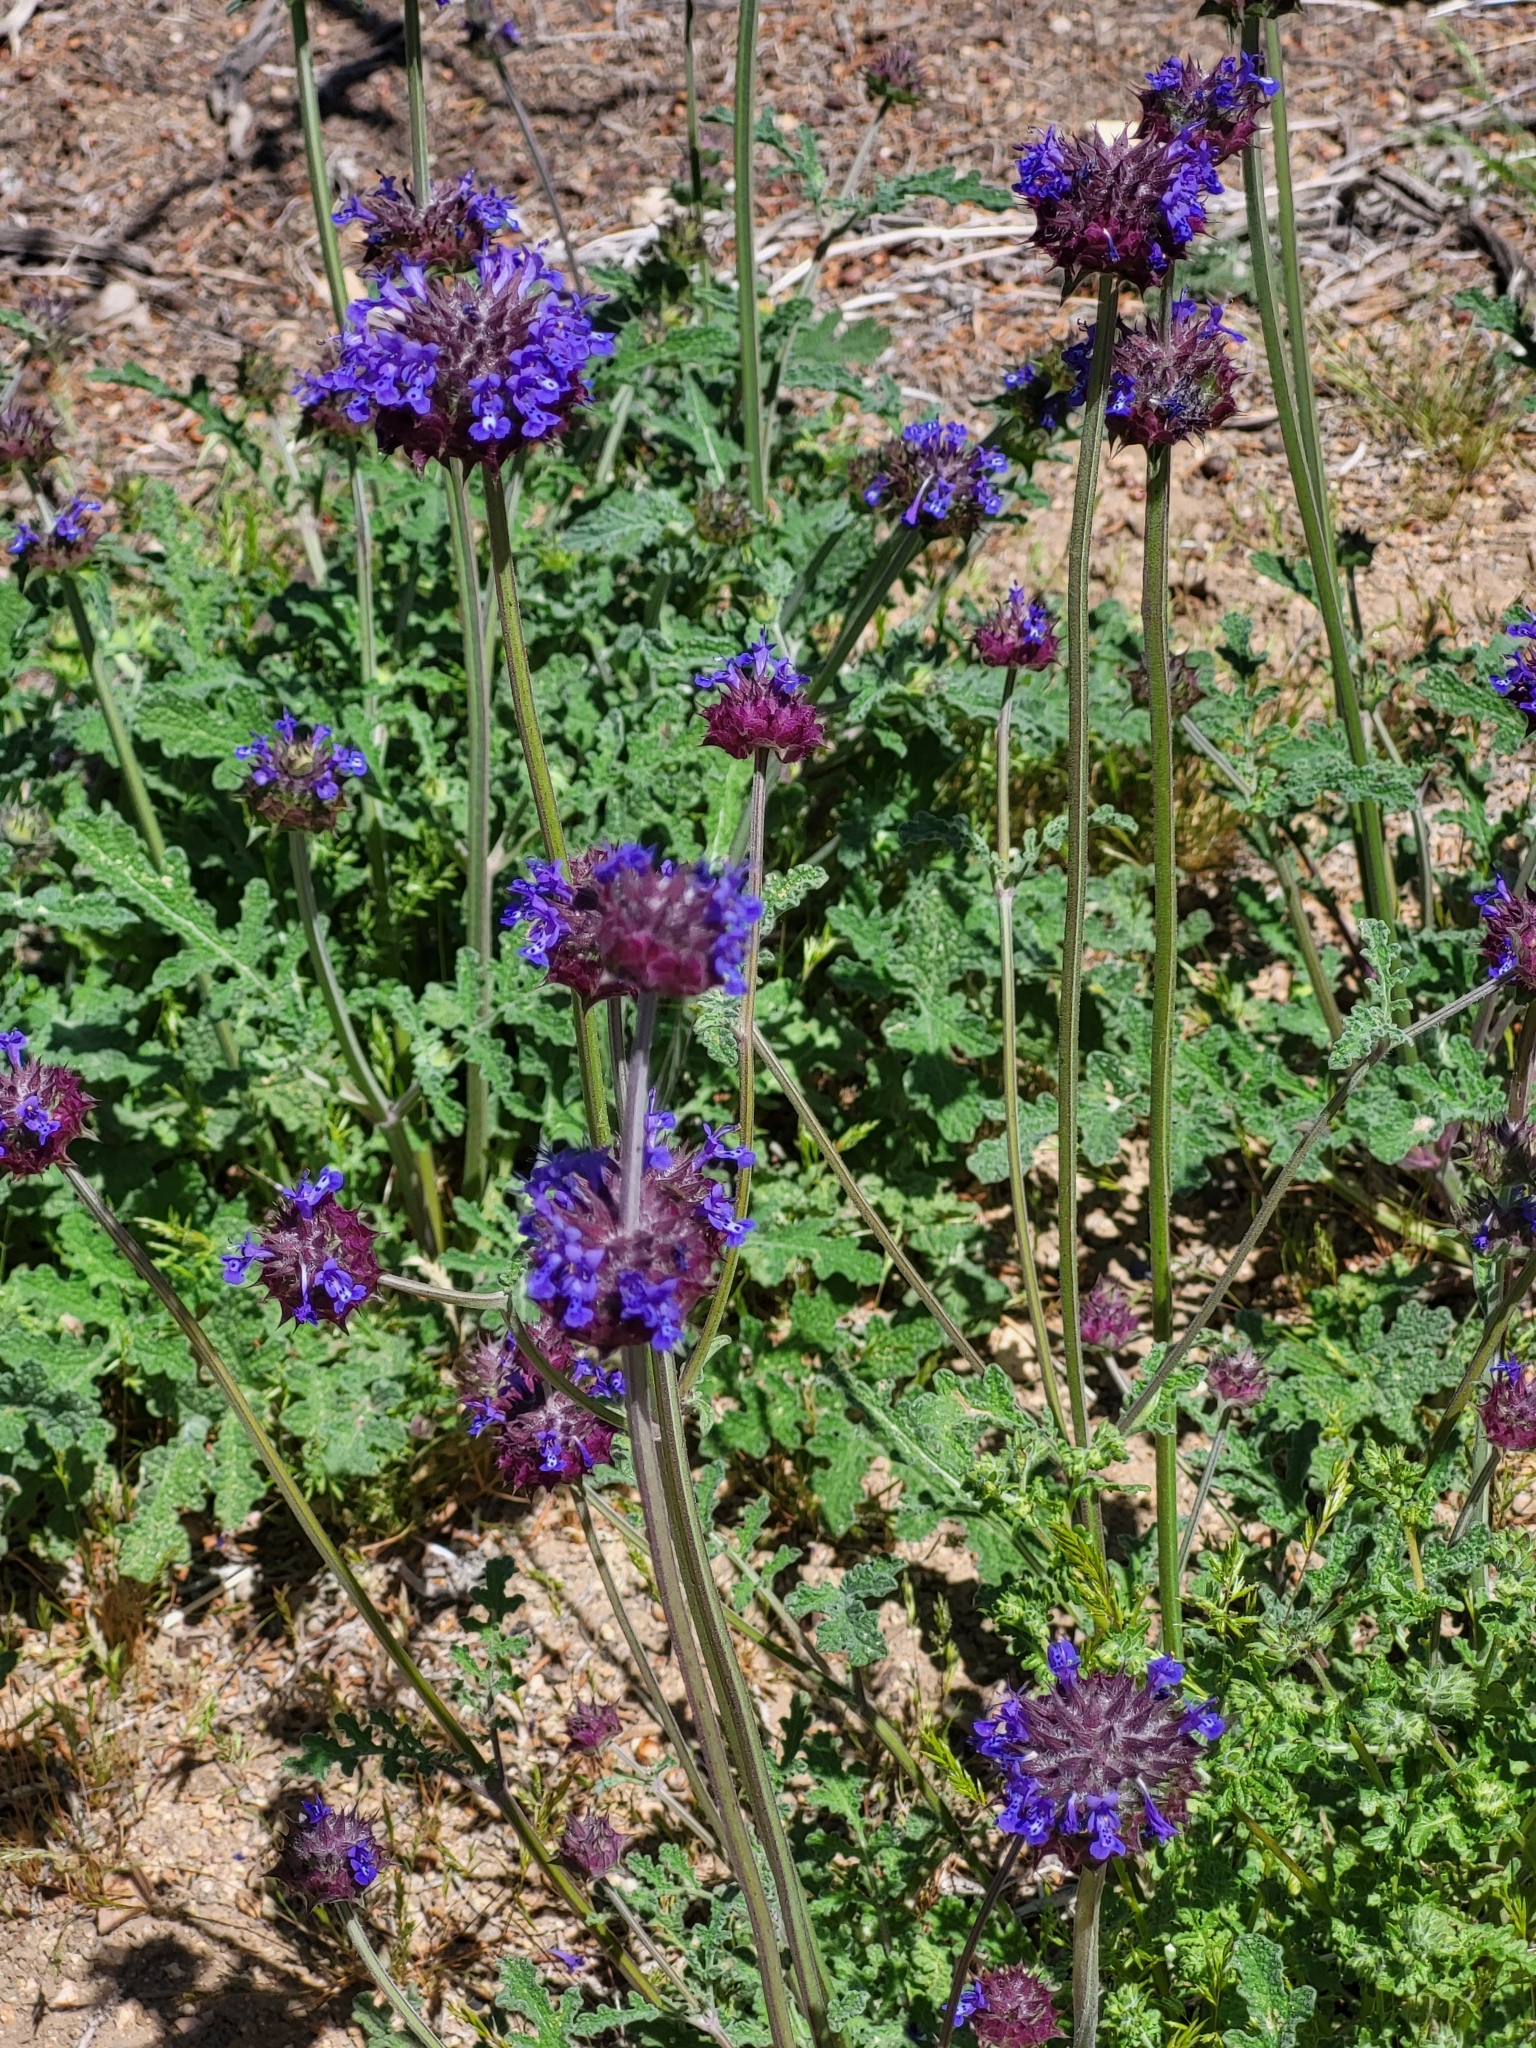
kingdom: Plantae
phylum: Tracheophyta
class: Magnoliopsida
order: Lamiales
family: Lamiaceae
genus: Salvia
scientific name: Salvia columbariae
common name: Chia
